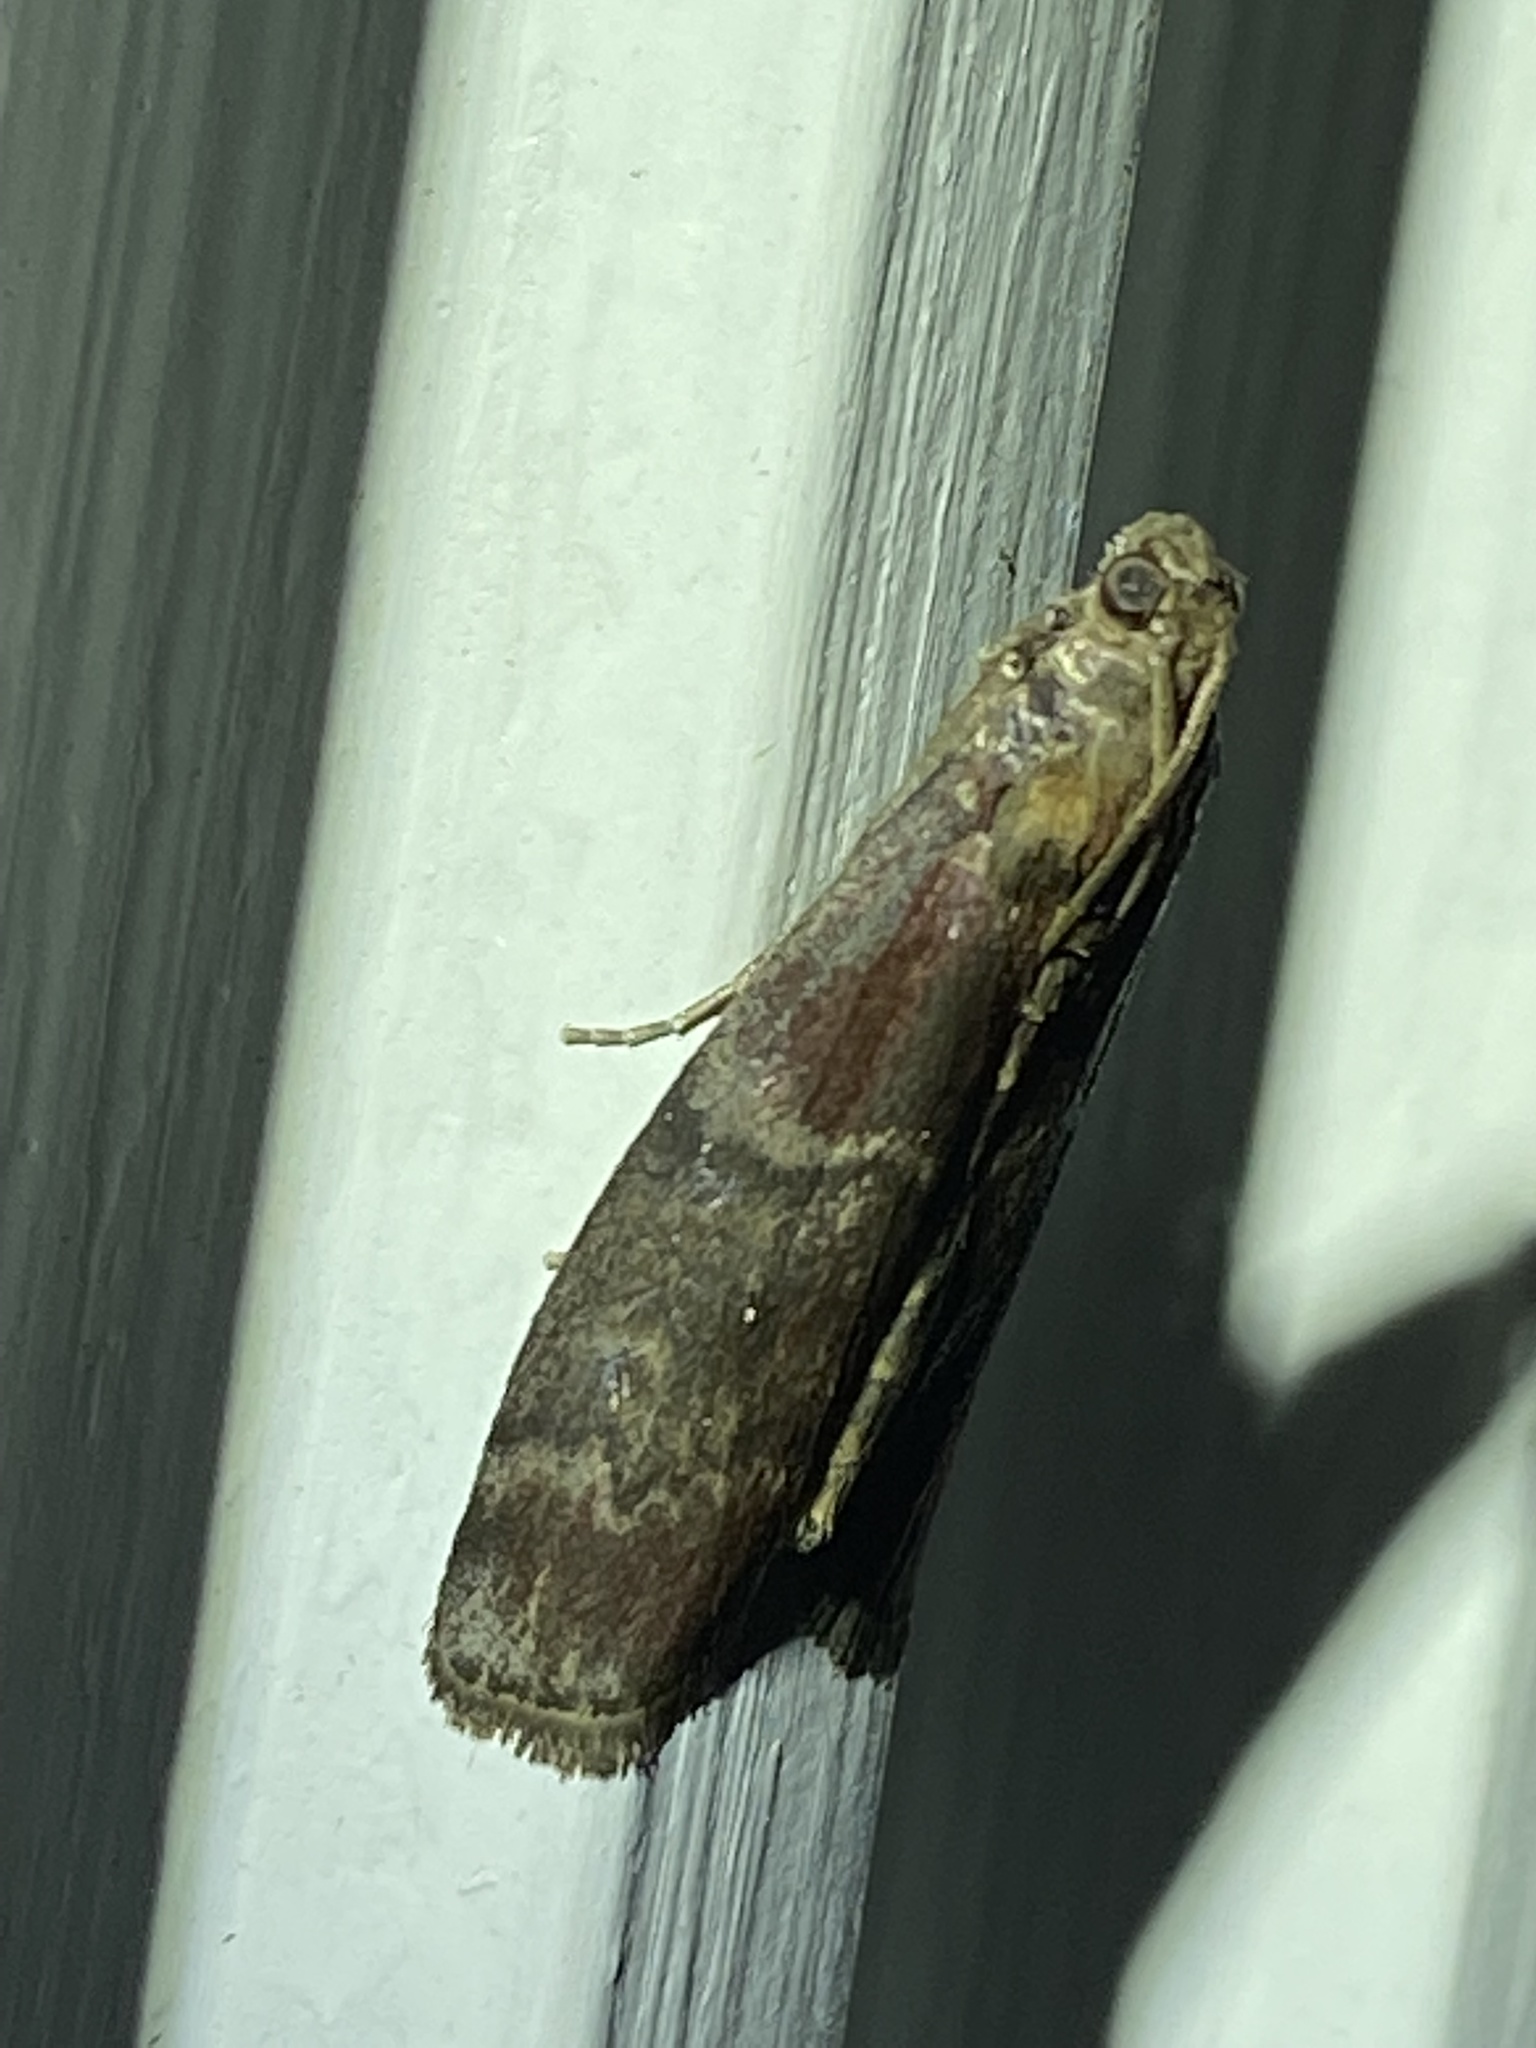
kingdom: Animalia
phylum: Arthropoda
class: Insecta
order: Lepidoptera
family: Pyralidae
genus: Euzophera
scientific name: Euzophera ostricolorella
